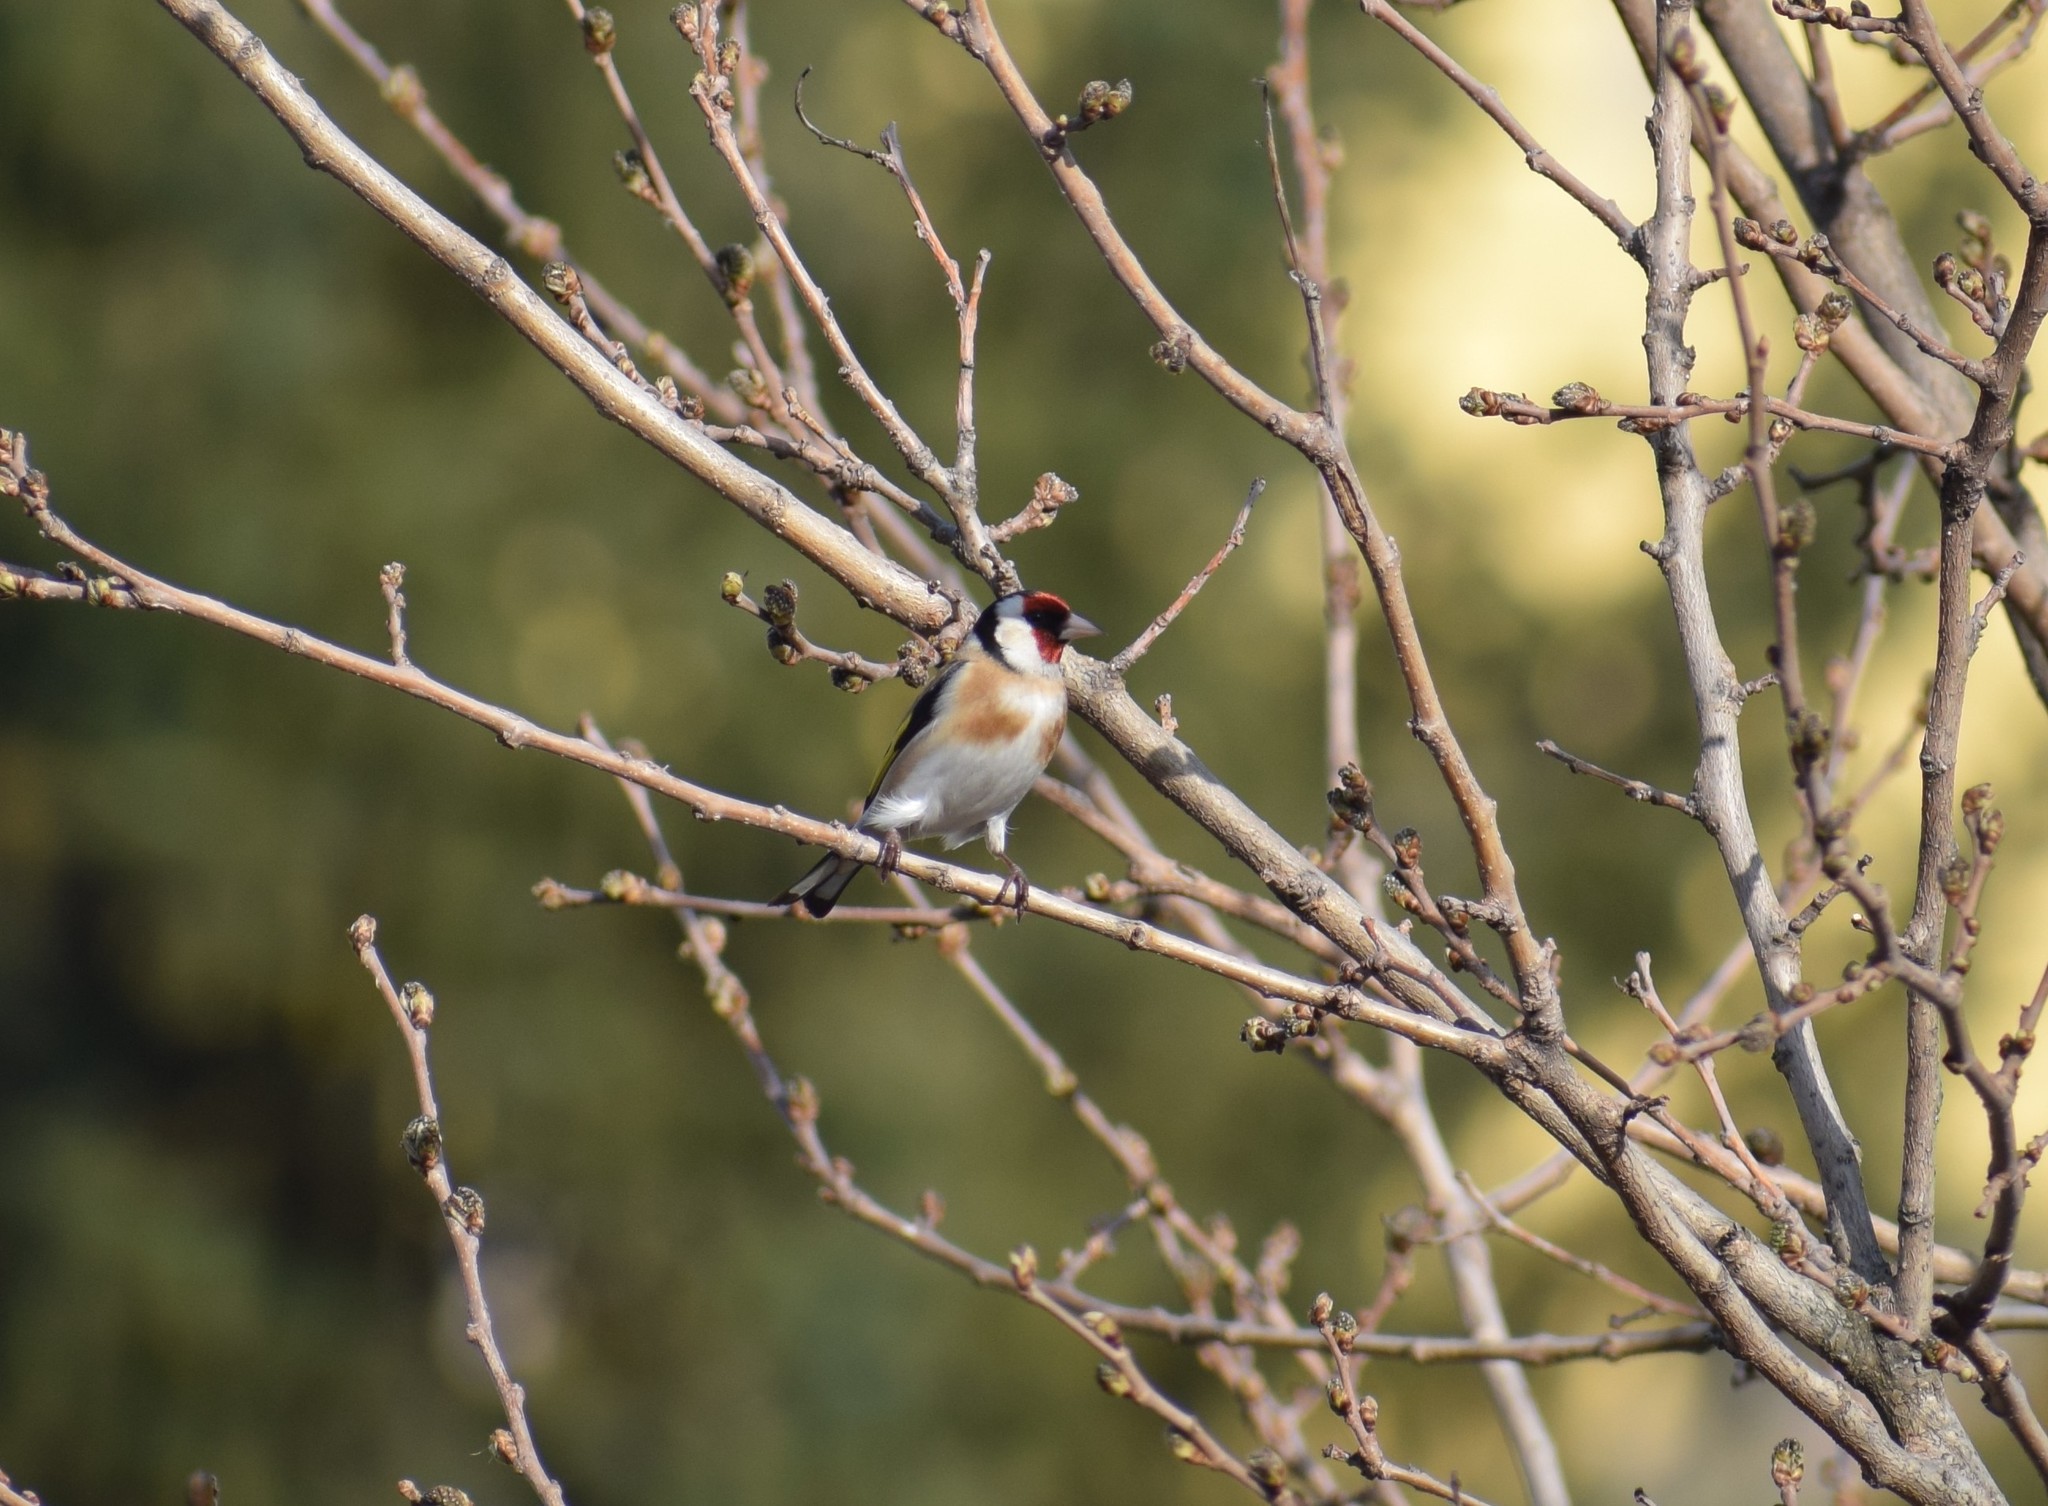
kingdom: Animalia
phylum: Chordata
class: Aves
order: Passeriformes
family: Fringillidae
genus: Carduelis
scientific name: Carduelis carduelis
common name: European goldfinch
